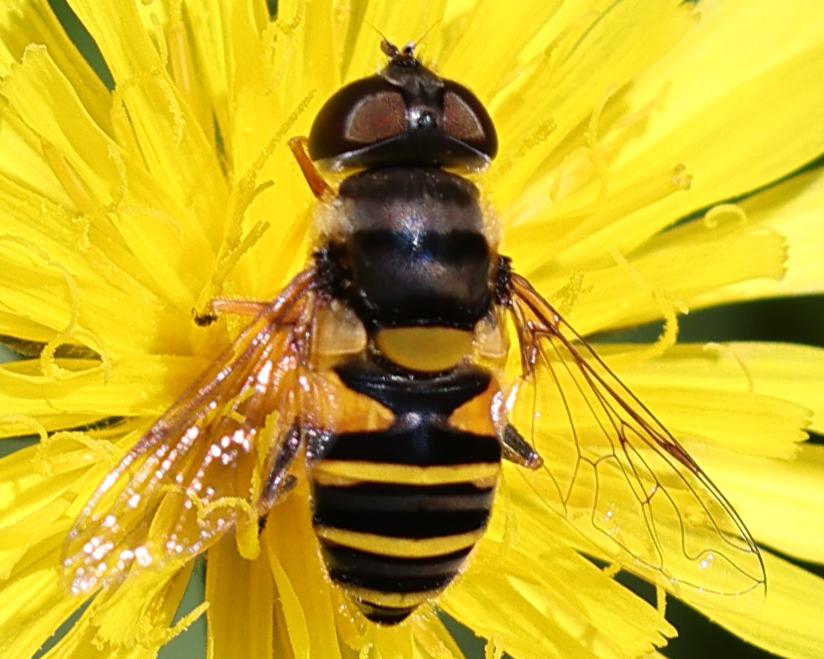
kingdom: Animalia
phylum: Arthropoda
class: Insecta
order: Diptera
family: Syrphidae
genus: Eristalis
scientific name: Eristalis transversa
